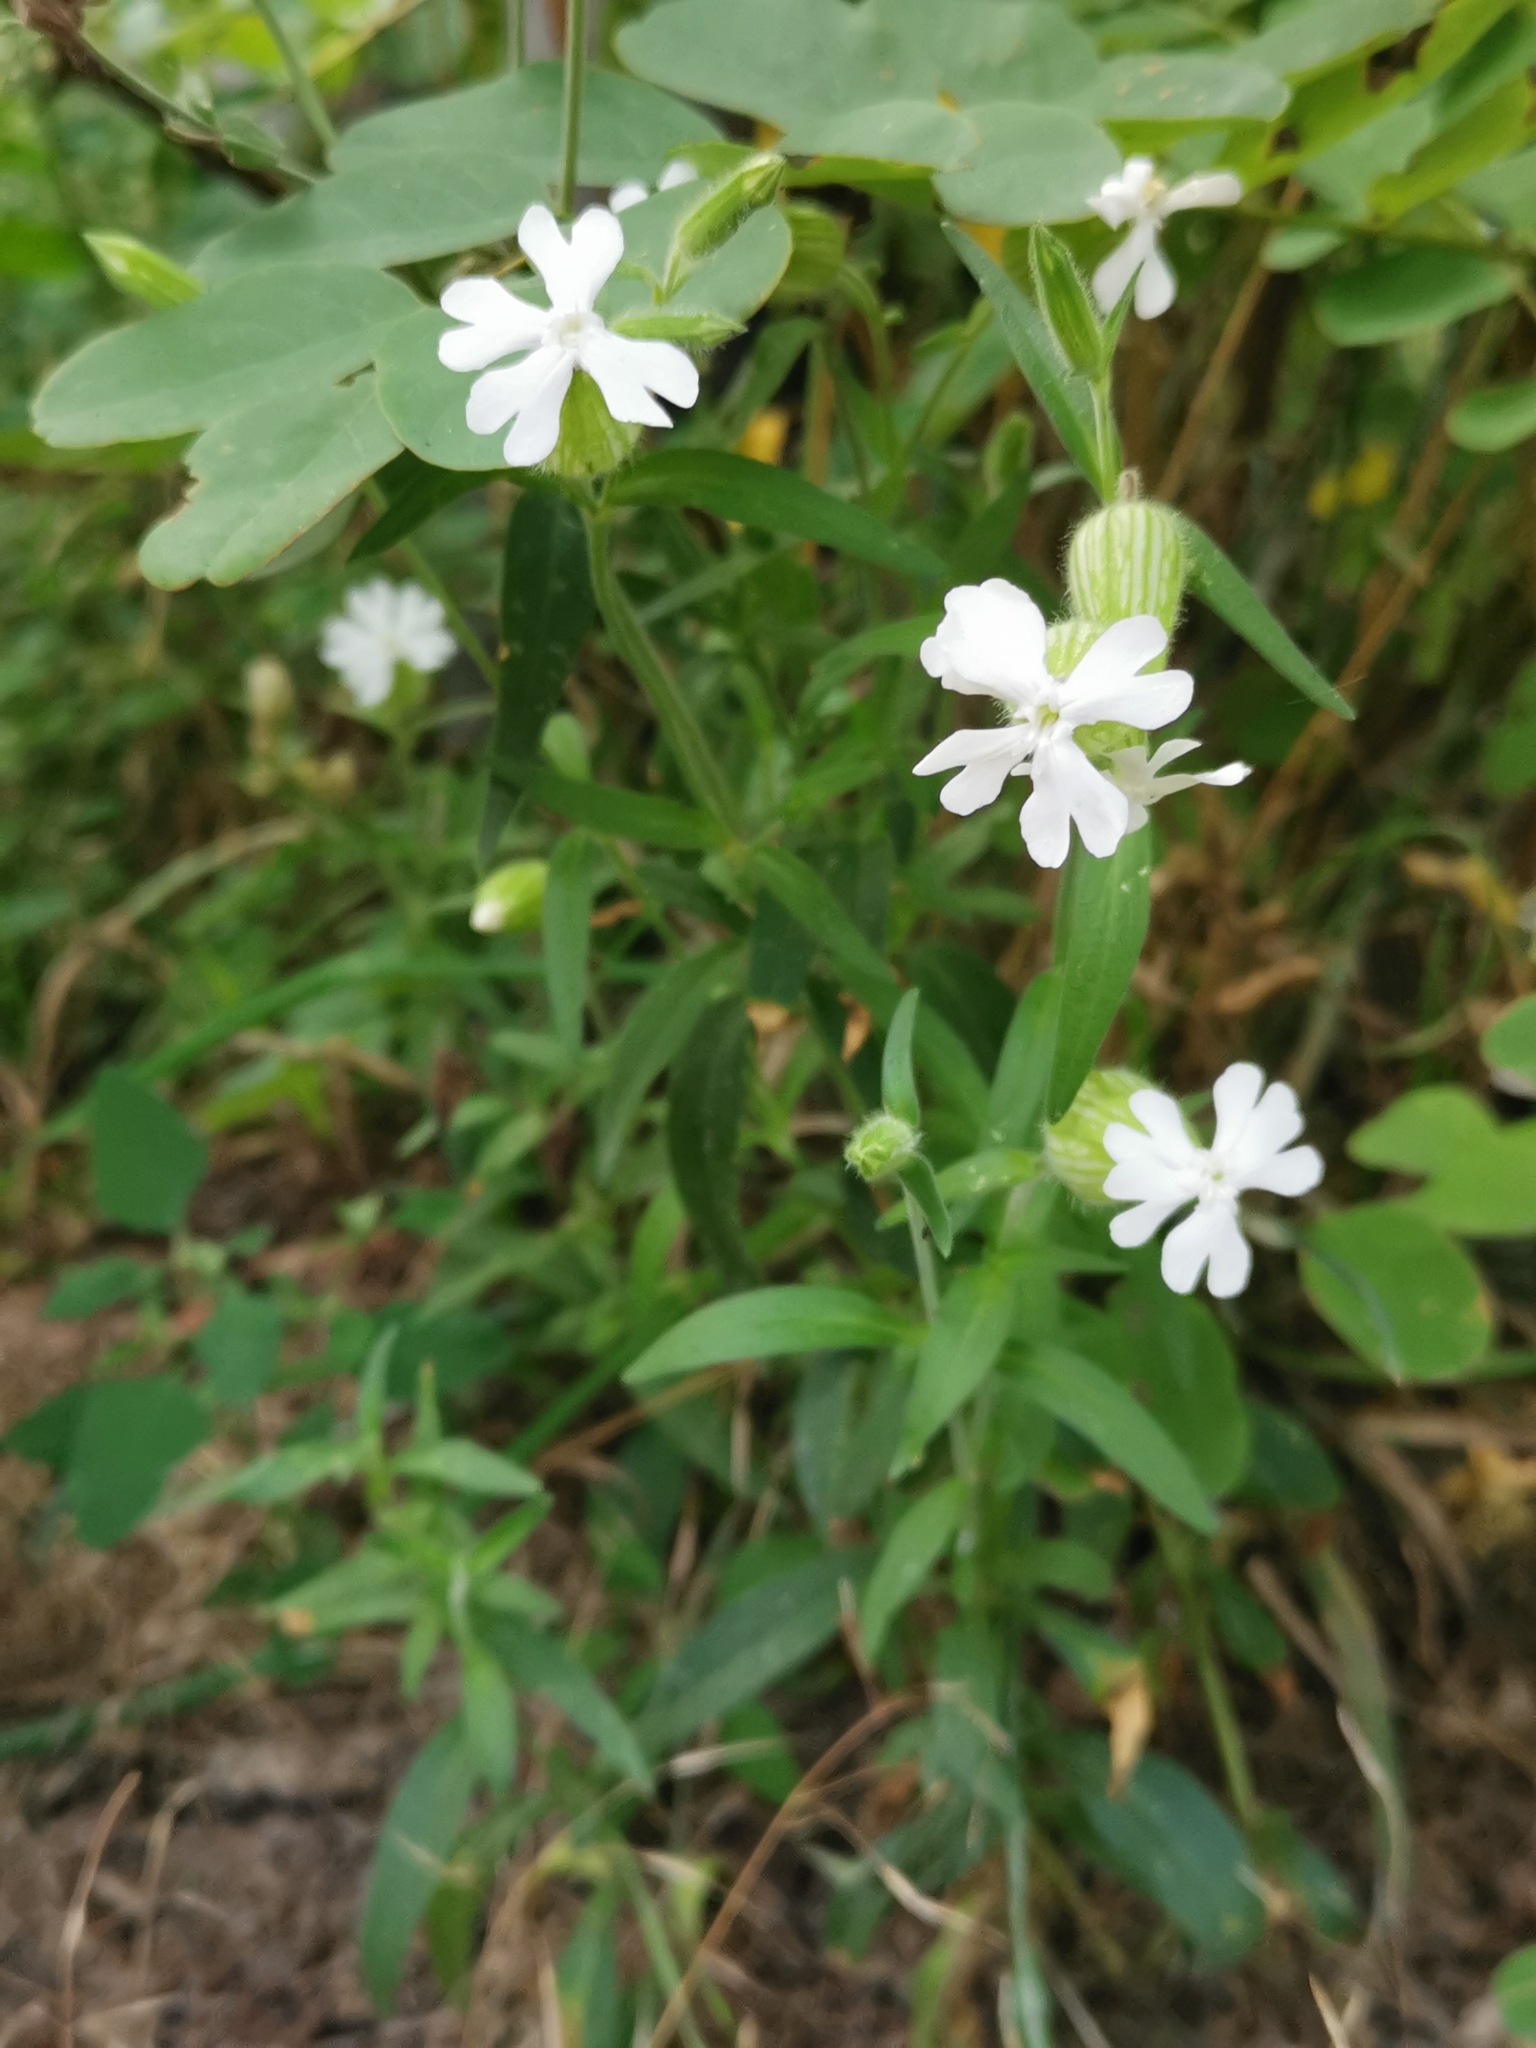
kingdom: Plantae
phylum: Tracheophyta
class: Magnoliopsida
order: Caryophyllales
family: Caryophyllaceae
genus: Silene
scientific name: Silene latifolia
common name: White campion
